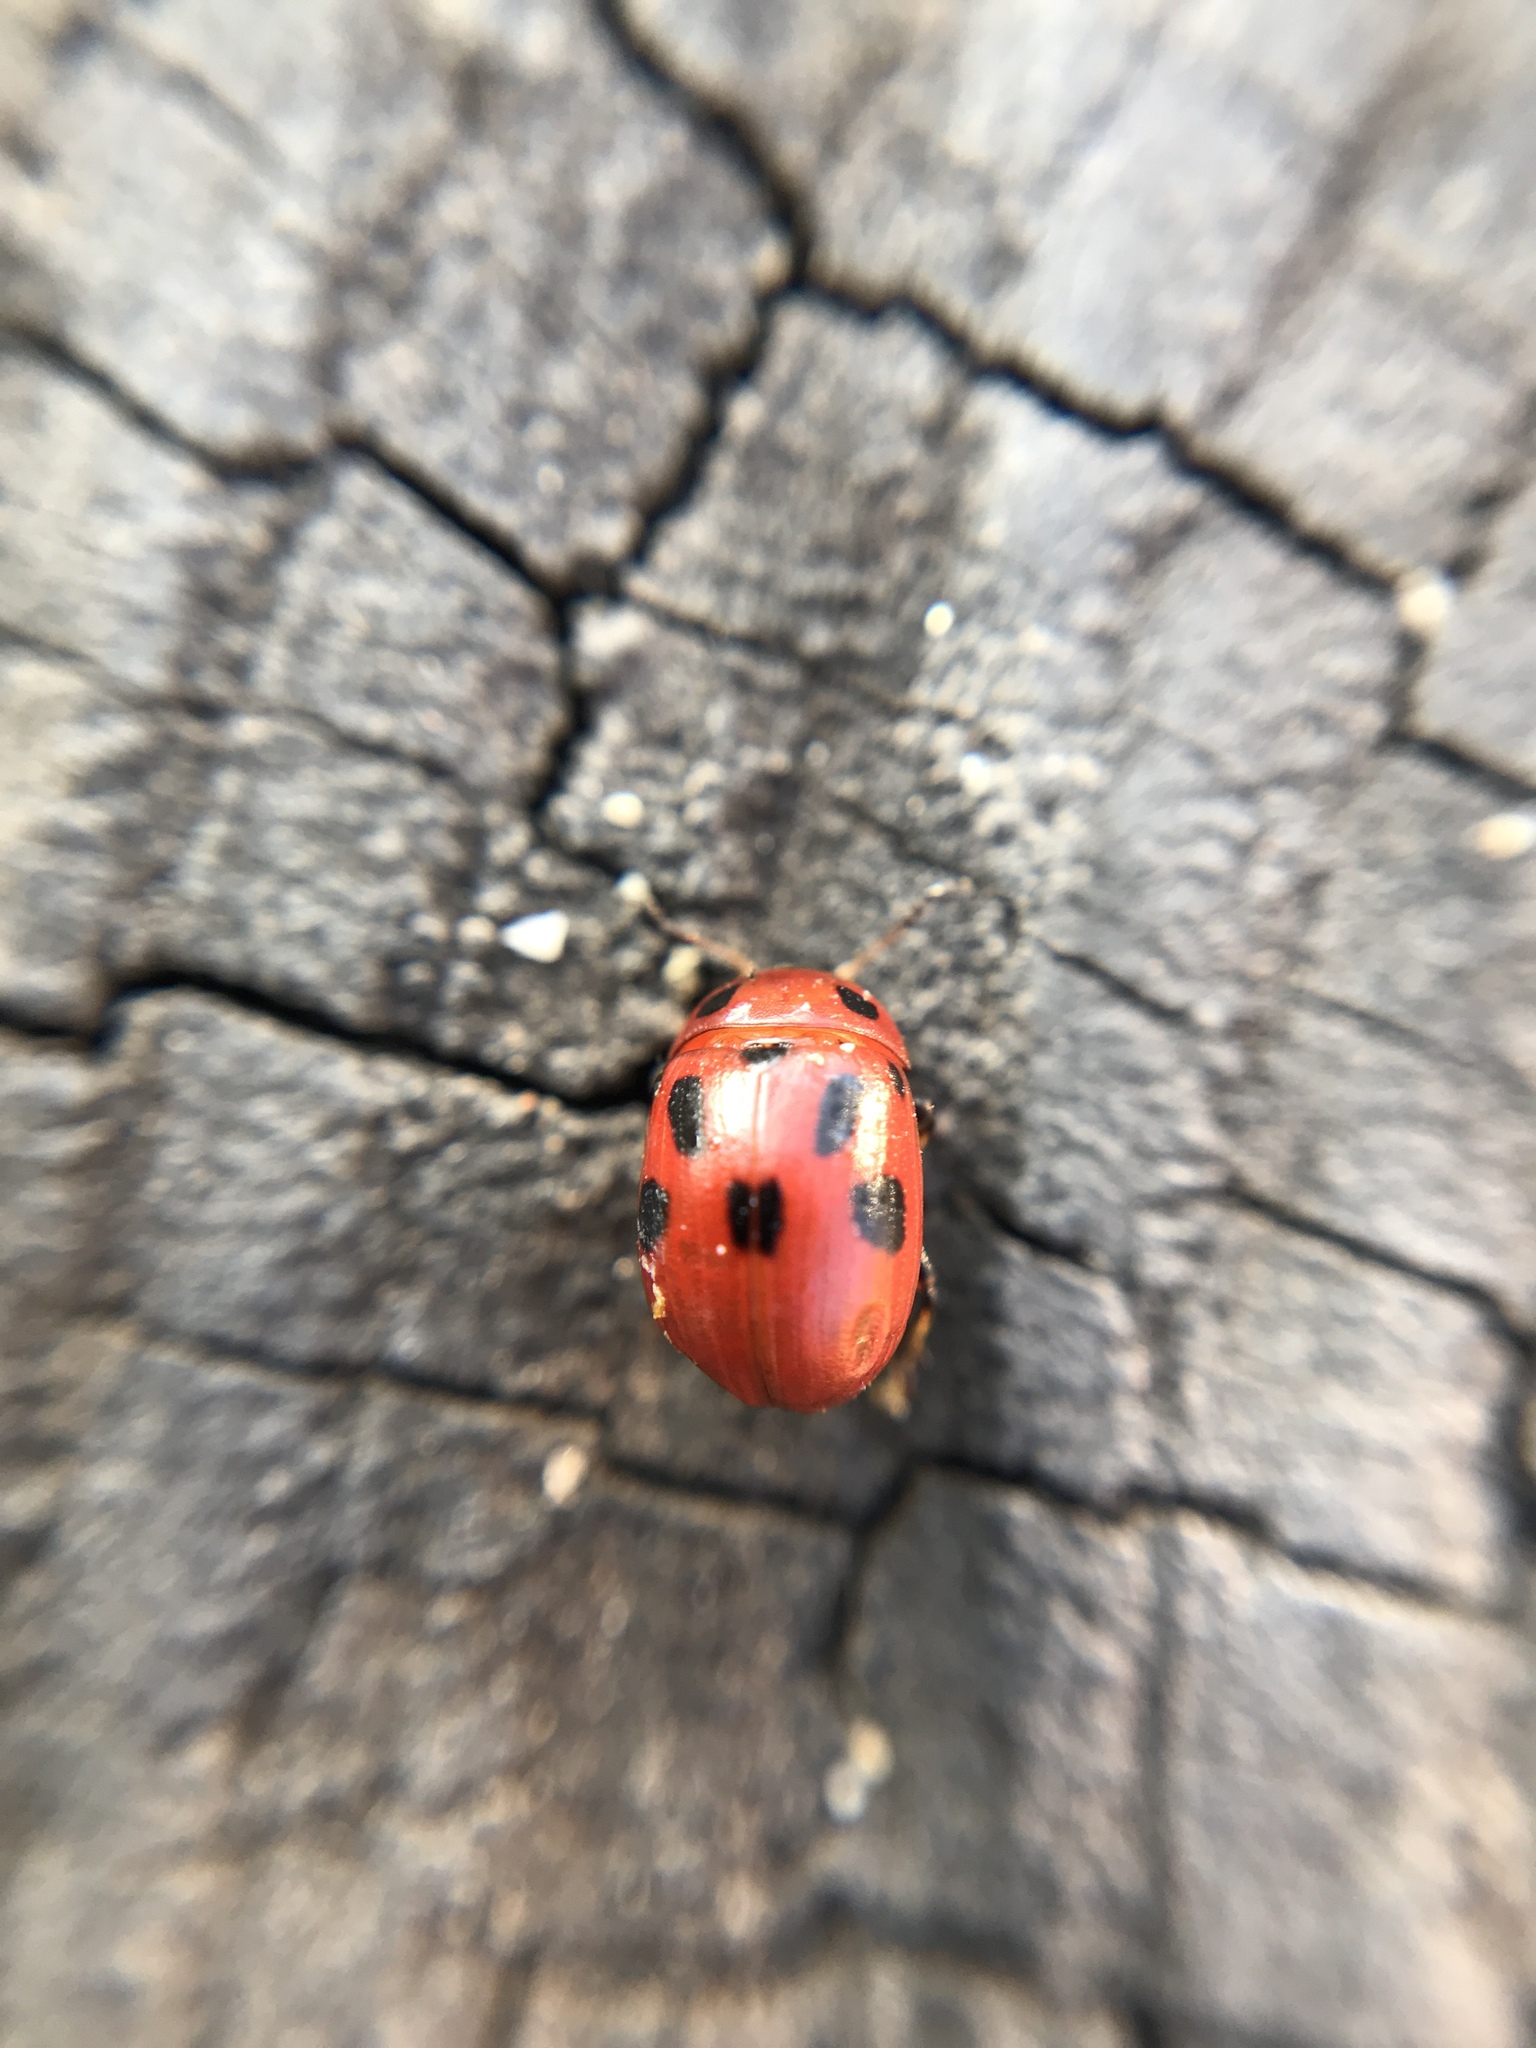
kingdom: Animalia
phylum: Arthropoda
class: Insecta
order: Coleoptera
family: Chrysomelidae
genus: Gonioctena
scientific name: Gonioctena fornicata
